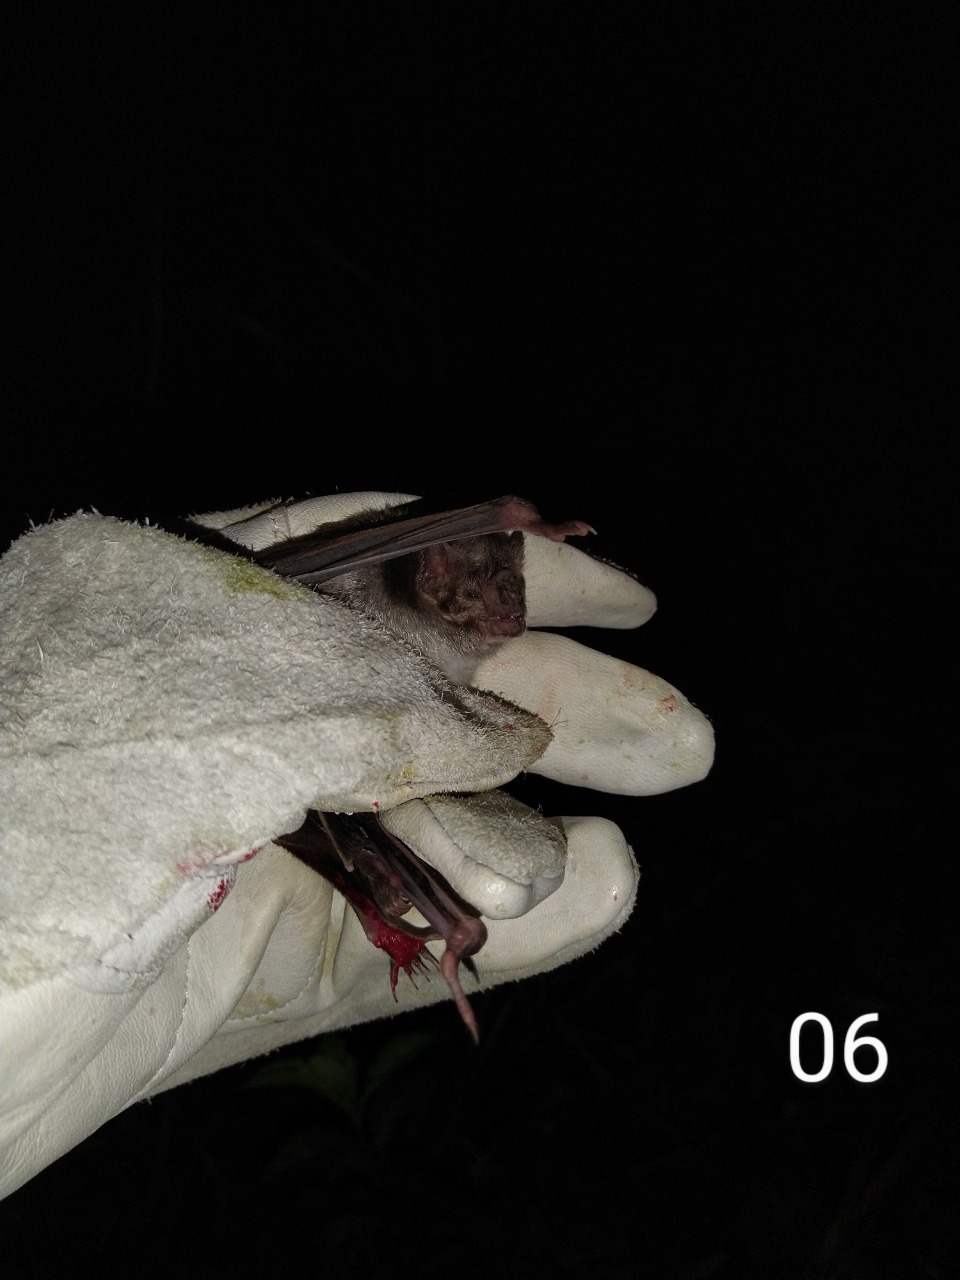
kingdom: Animalia
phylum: Chordata
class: Mammalia
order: Chiroptera
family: Phyllostomidae
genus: Desmodus
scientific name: Desmodus rotundus
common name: Common vampire bat
